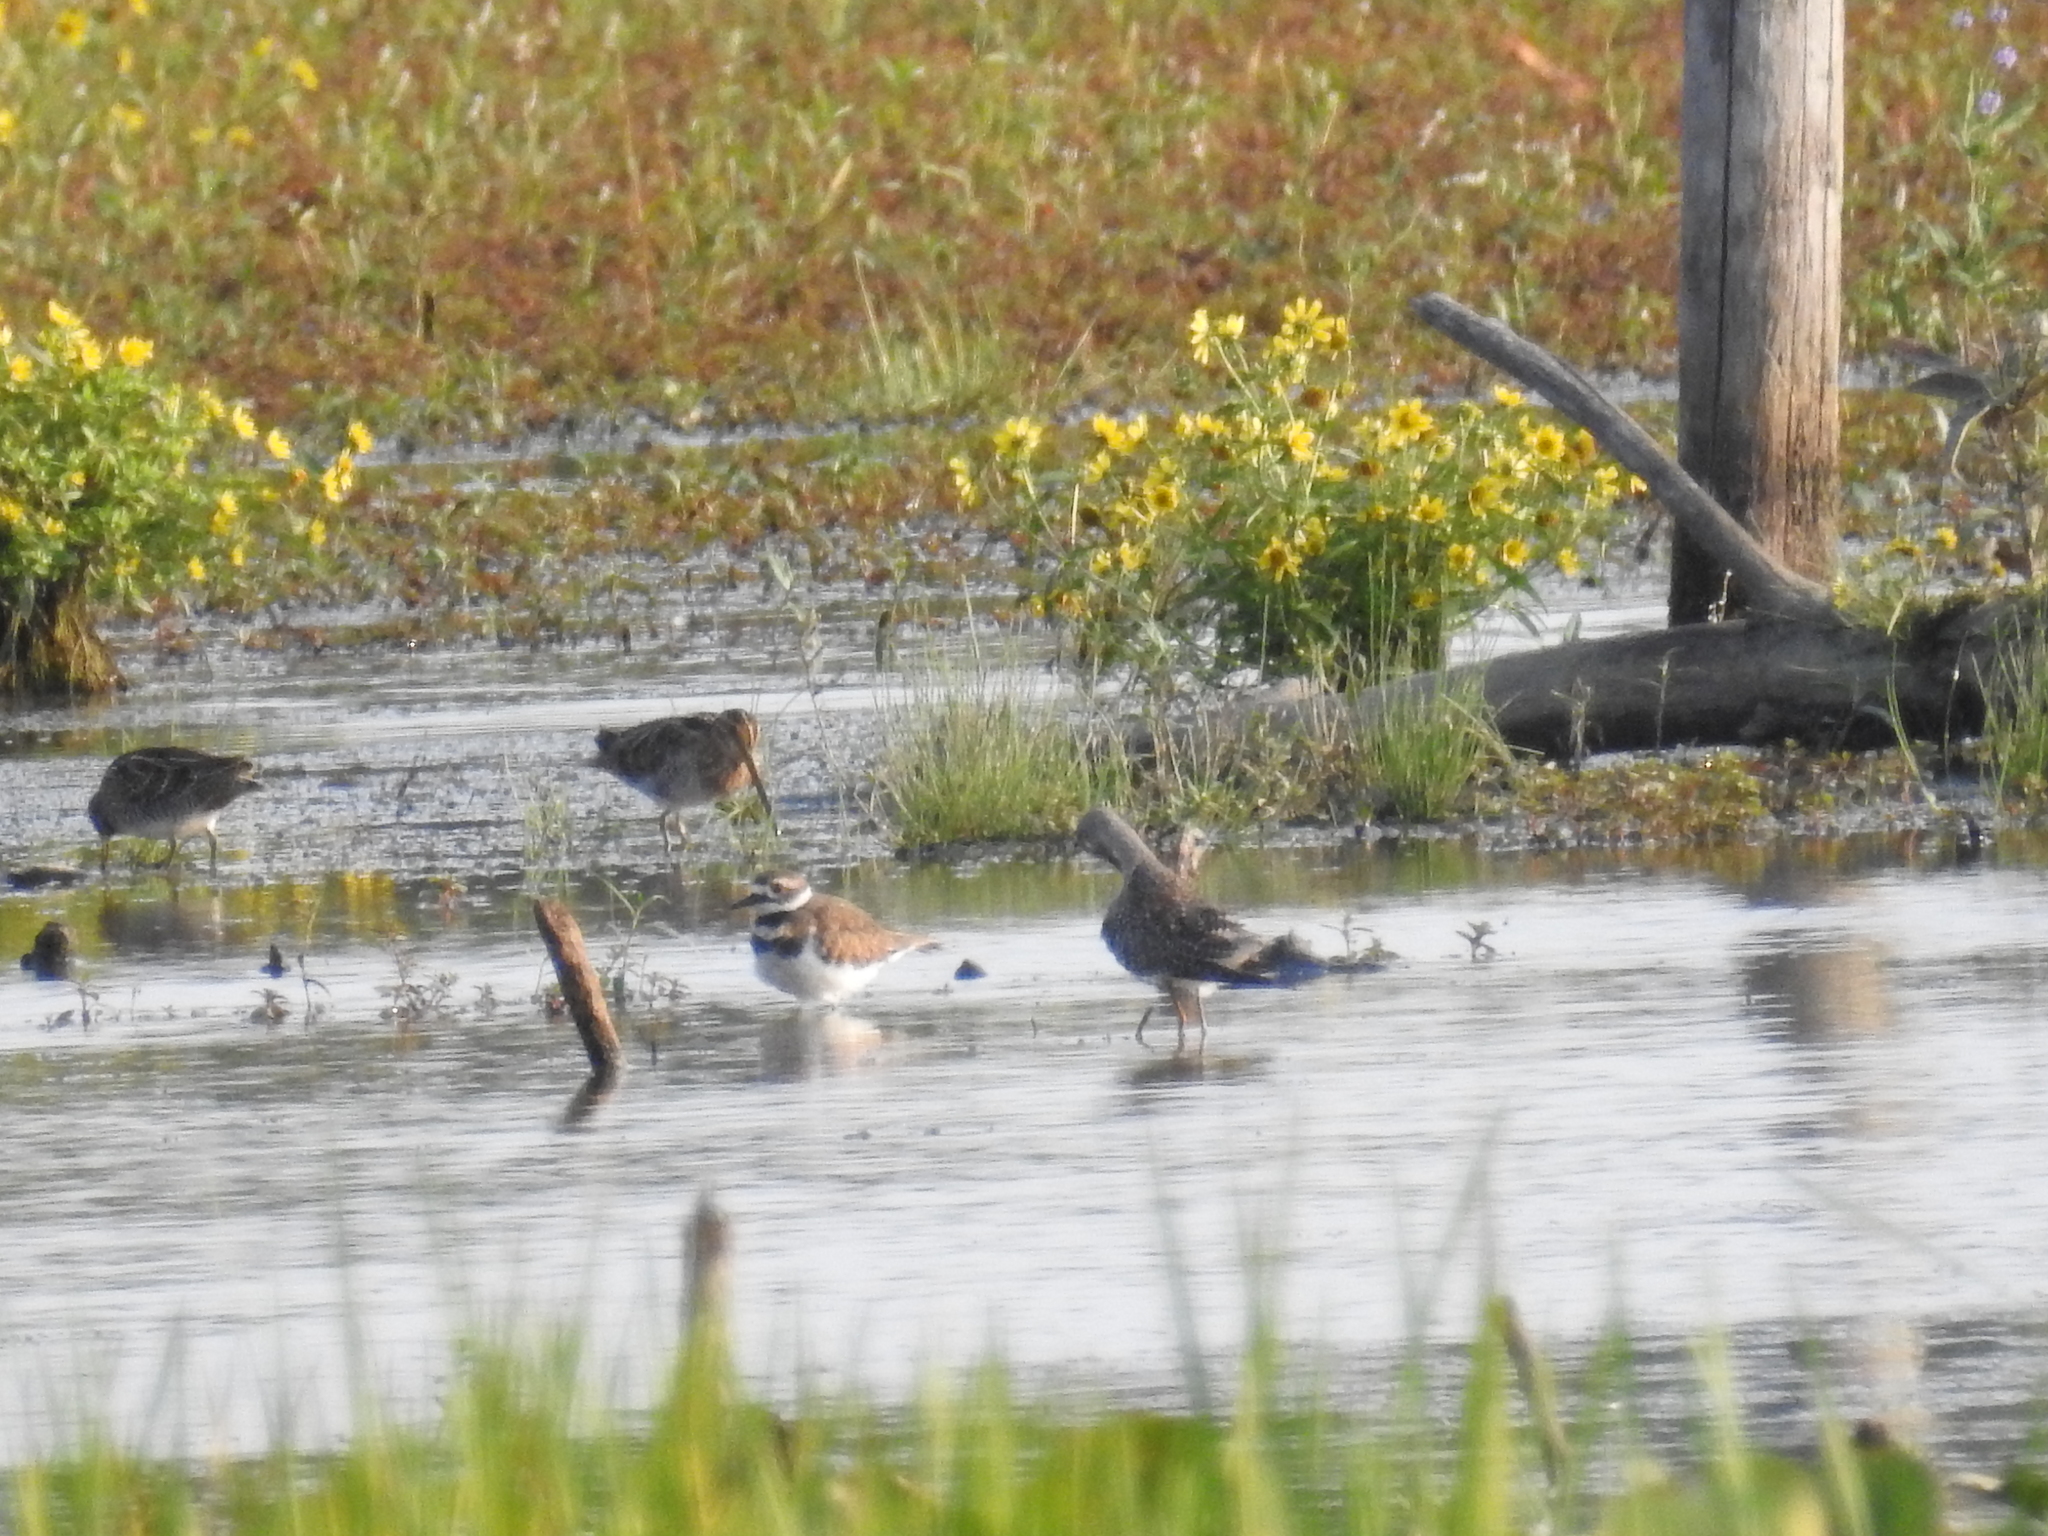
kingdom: Animalia
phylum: Chordata
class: Aves
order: Charadriiformes
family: Charadriidae
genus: Charadrius
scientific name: Charadrius vociferus
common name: Killdeer
